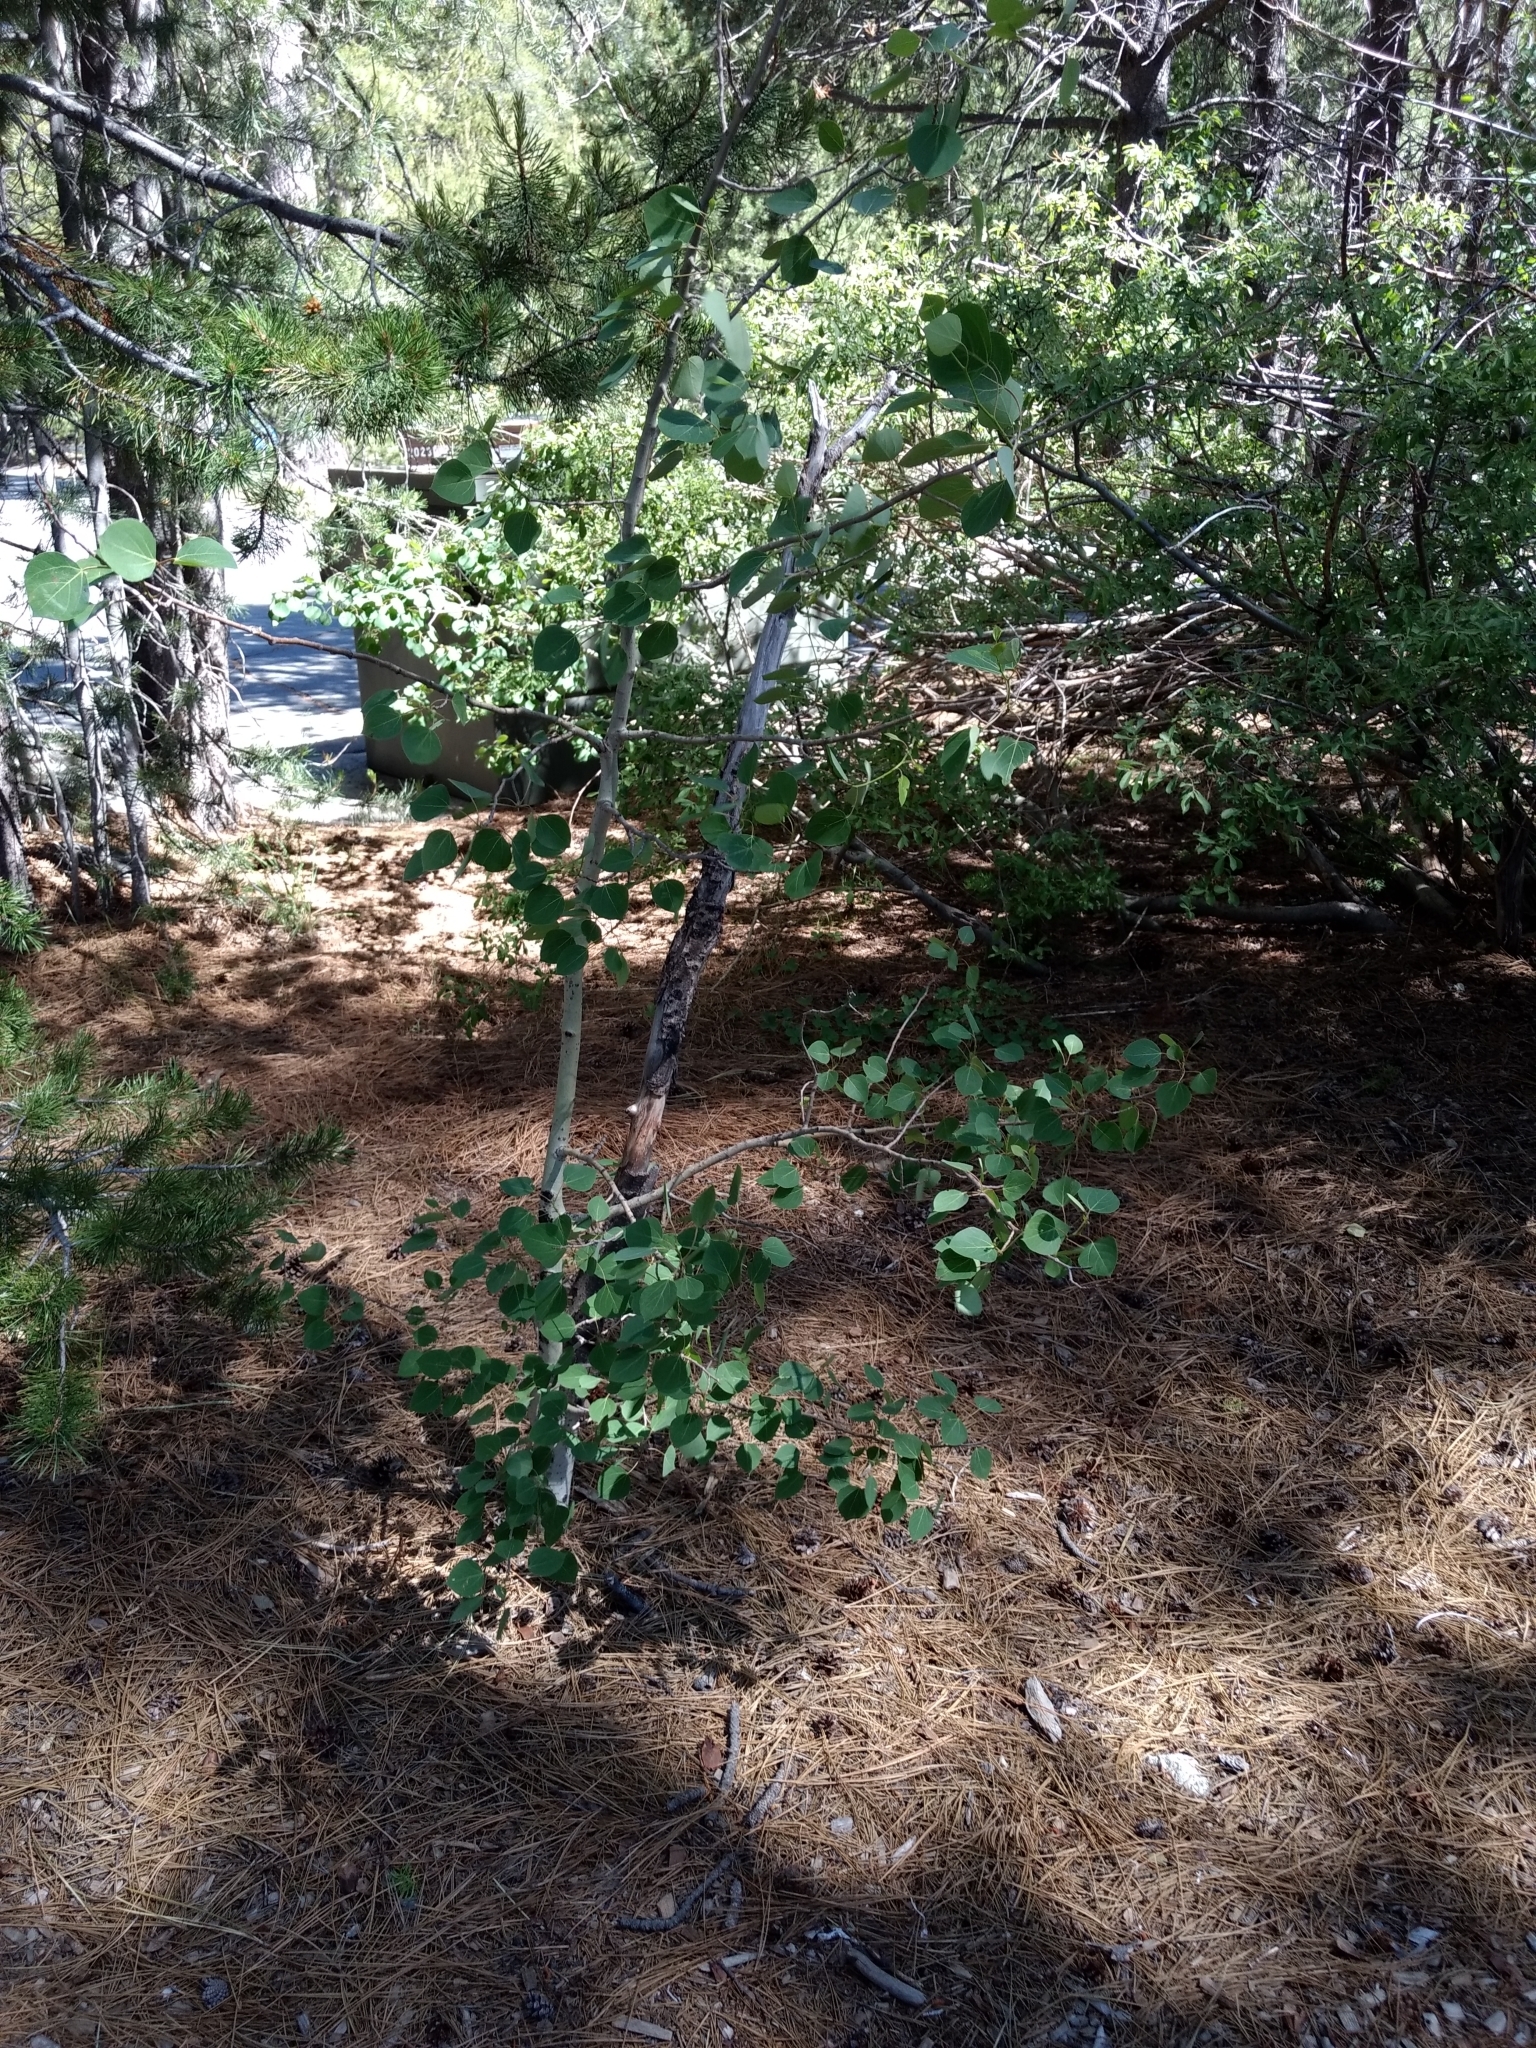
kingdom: Plantae
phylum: Tracheophyta
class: Magnoliopsida
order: Malpighiales
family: Salicaceae
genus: Populus
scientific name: Populus tremuloides
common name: Quaking aspen
